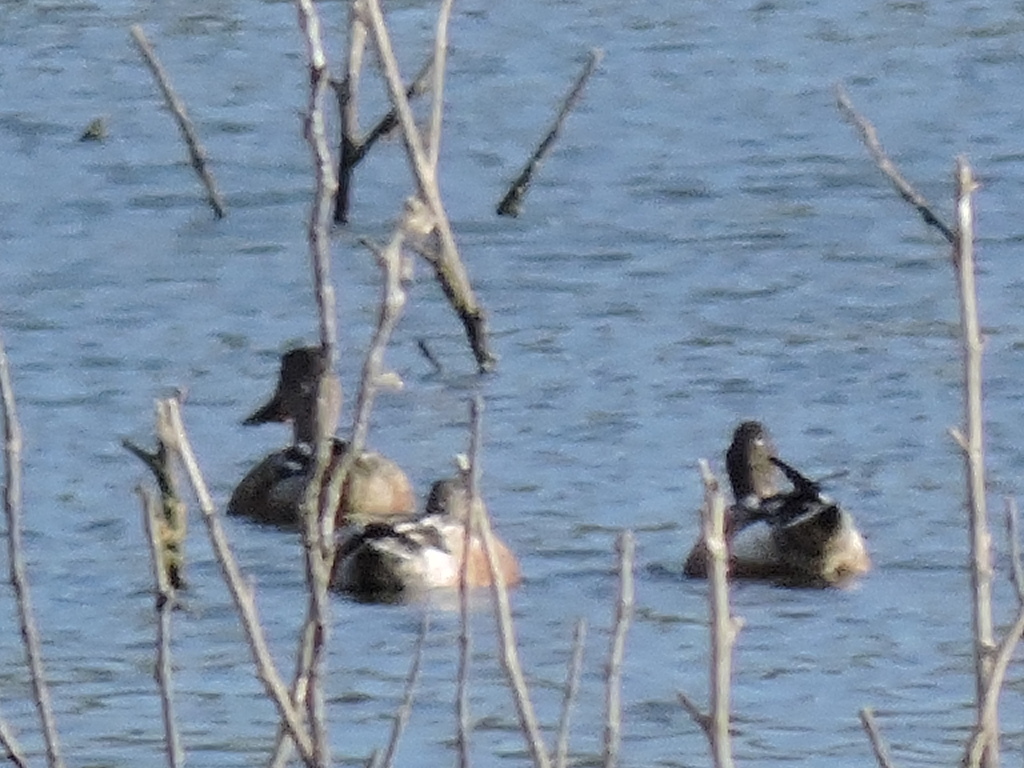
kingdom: Animalia
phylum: Chordata
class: Aves
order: Anseriformes
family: Anatidae
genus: Spatula
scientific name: Spatula clypeata
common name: Northern shoveler
